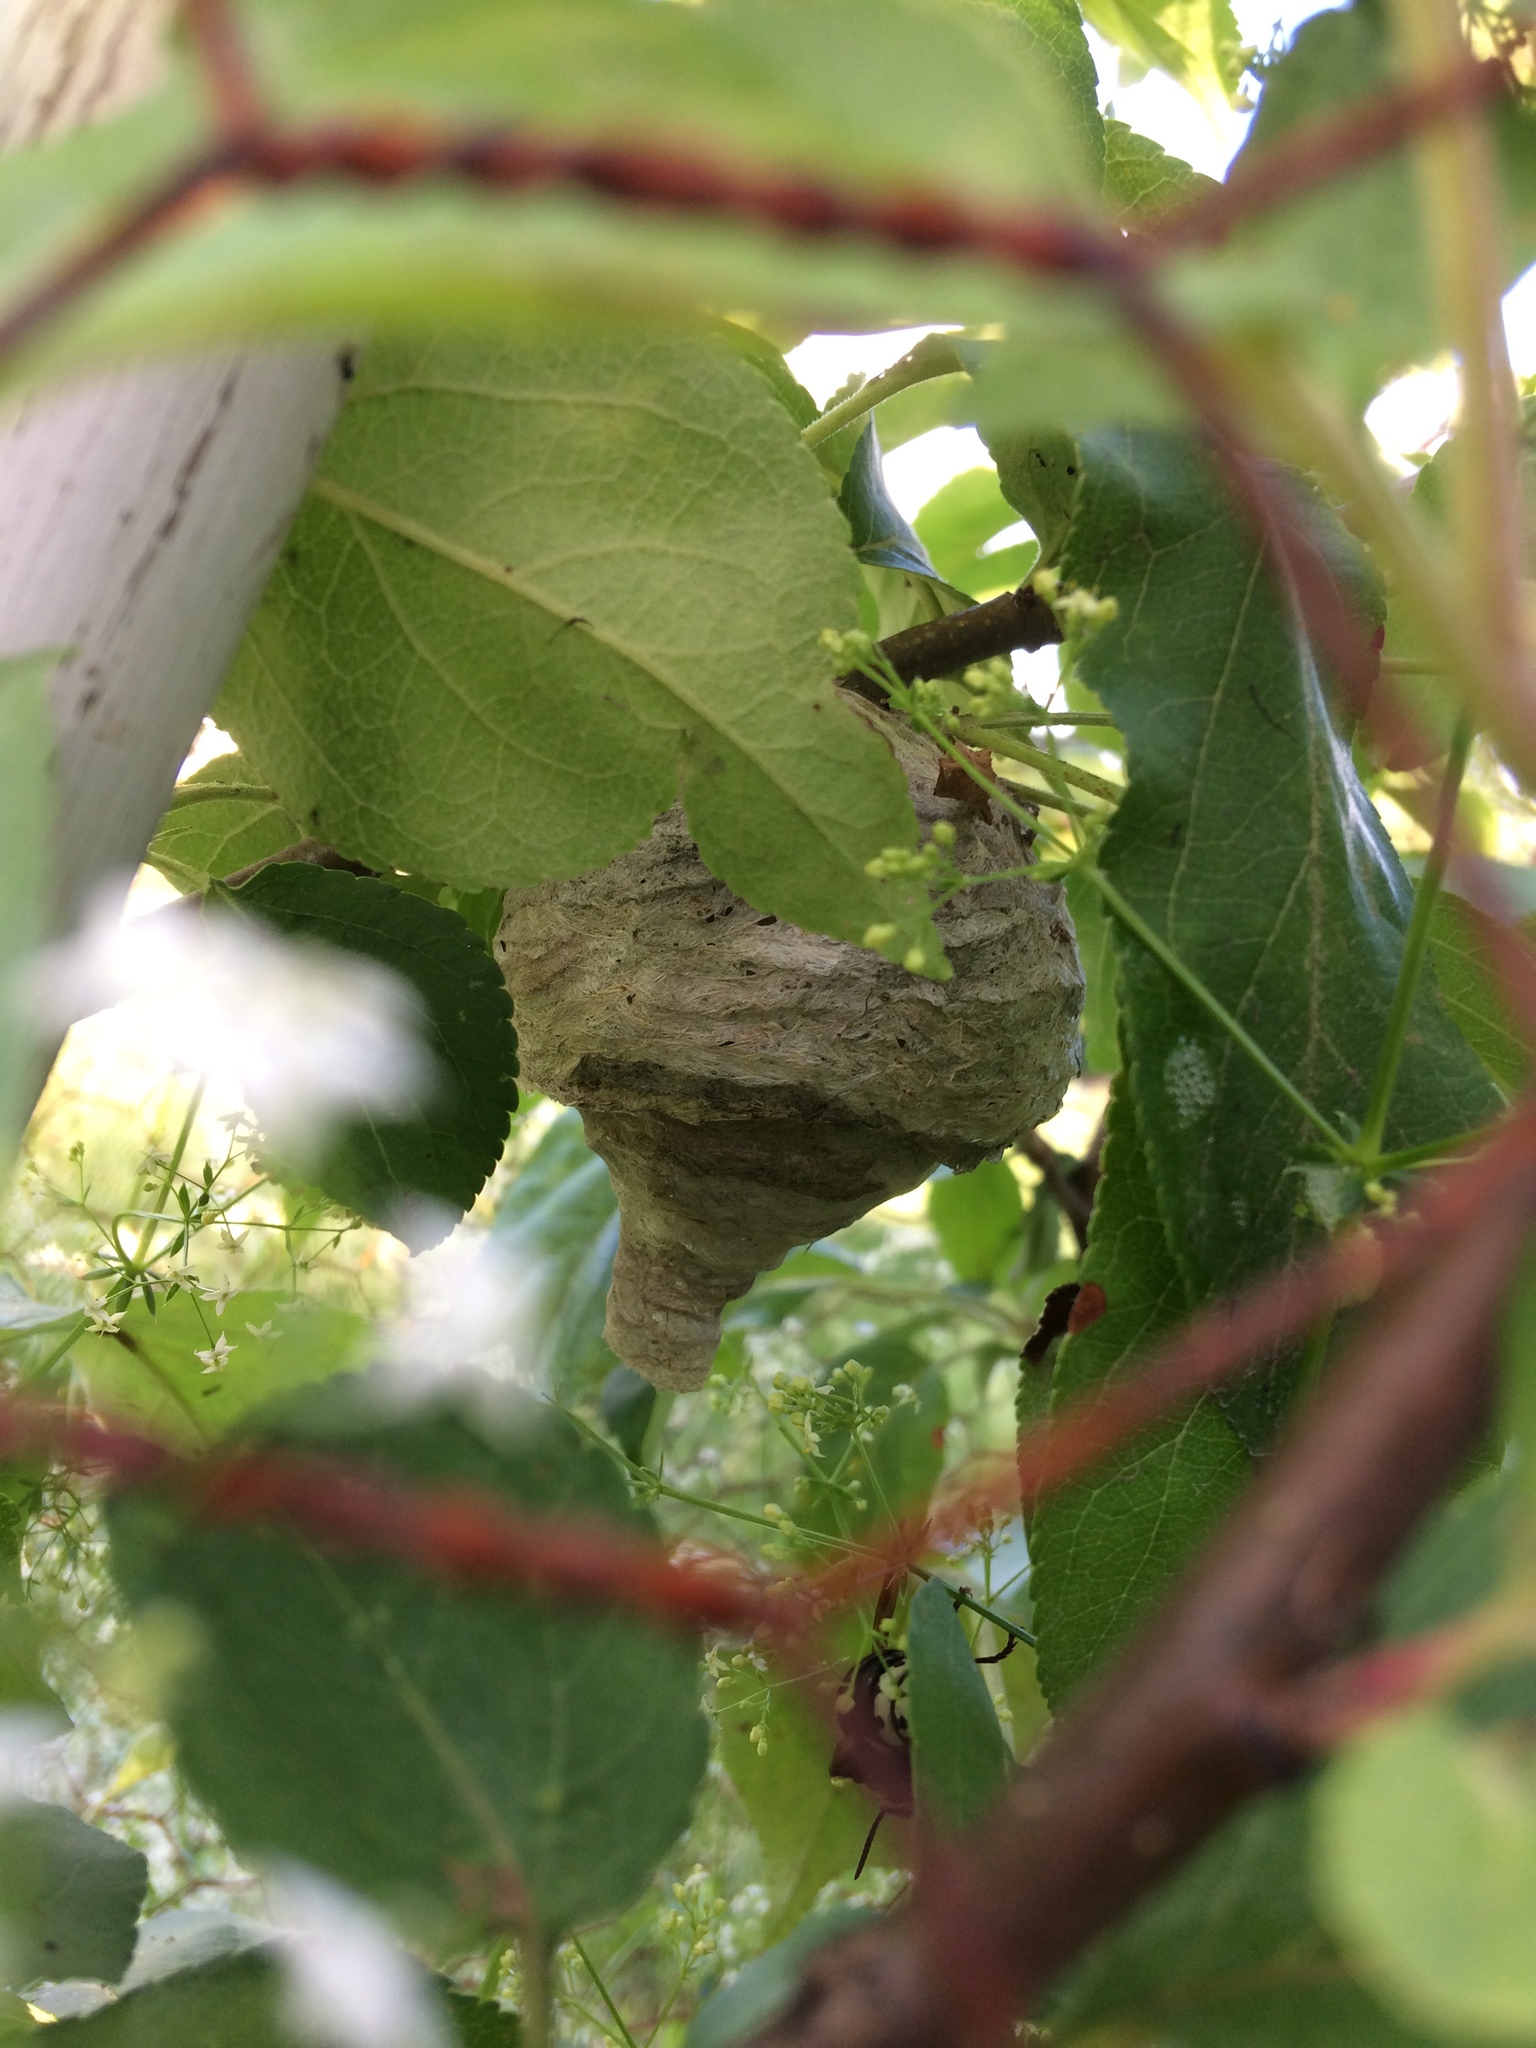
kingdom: Animalia
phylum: Arthropoda
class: Insecta
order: Hymenoptera
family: Vespidae
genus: Dolichovespula
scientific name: Dolichovespula maculata
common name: Bald-faced hornet
